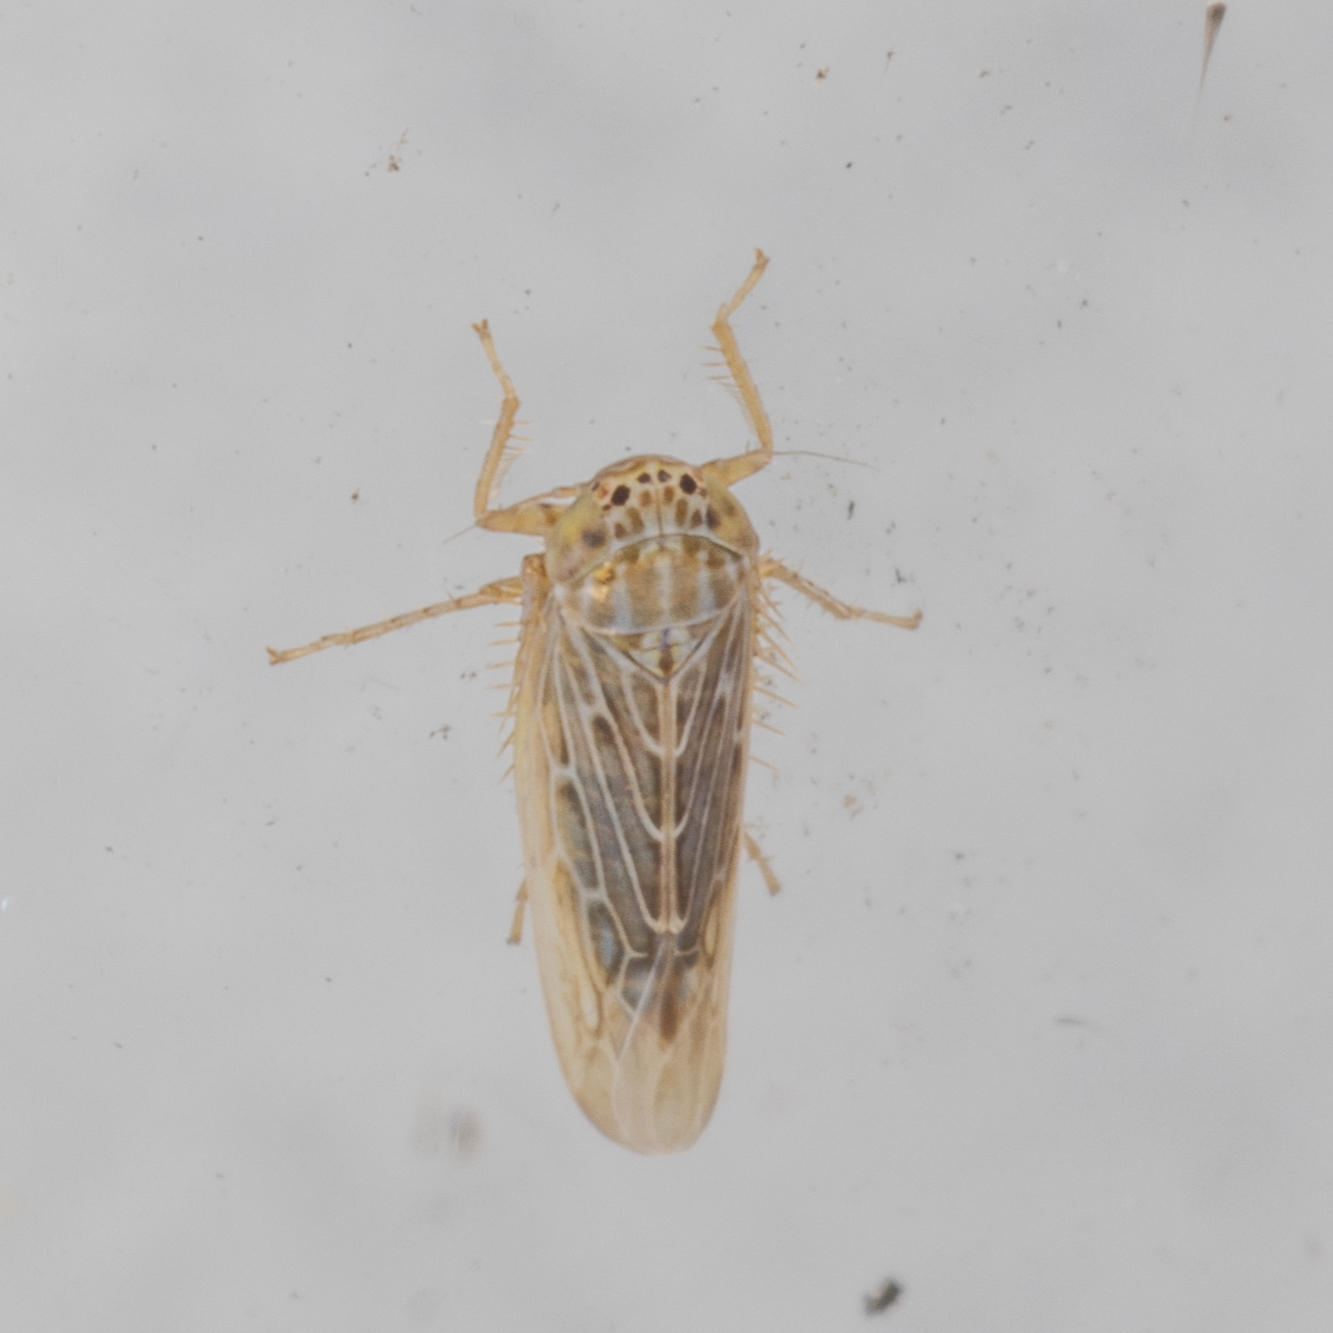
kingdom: Animalia
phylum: Arthropoda
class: Insecta
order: Hemiptera
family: Cicadellidae
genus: Graminella
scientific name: Graminella sonora
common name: Lesser lawn leafhopper
